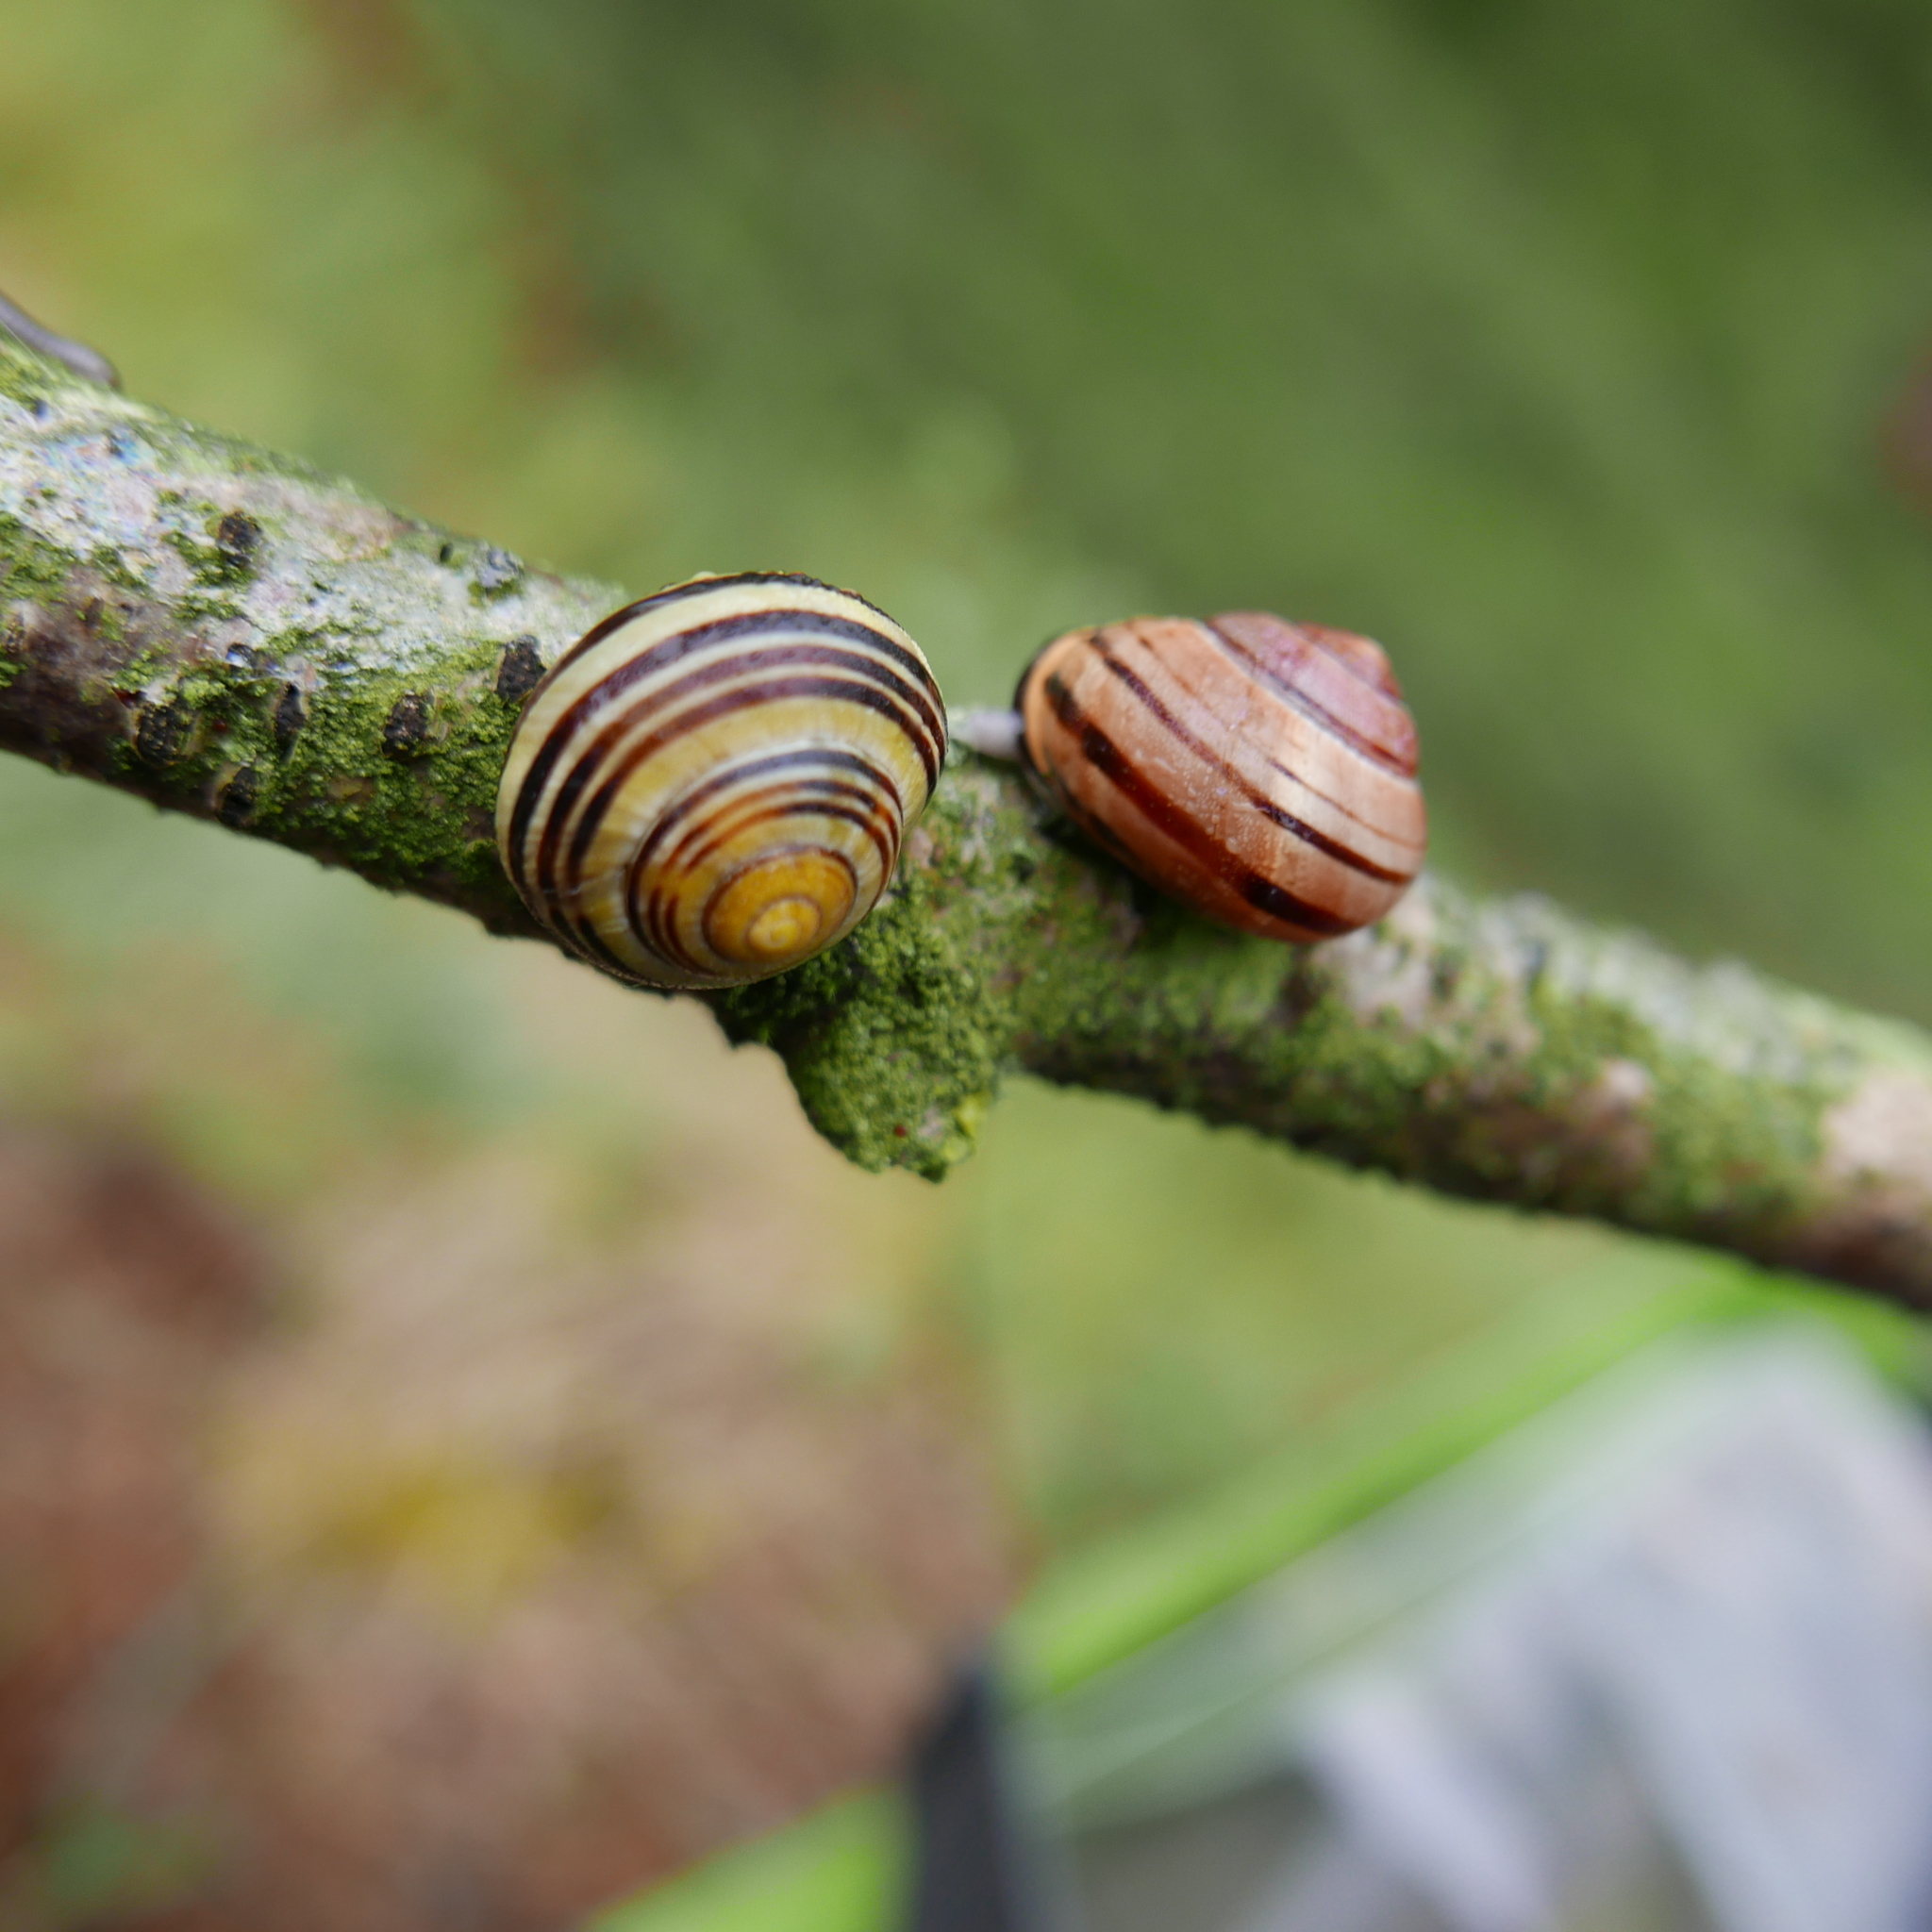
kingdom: Animalia
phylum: Mollusca
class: Gastropoda
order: Stylommatophora
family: Helicidae
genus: Cepaea
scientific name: Cepaea nemoralis
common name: Grovesnail
